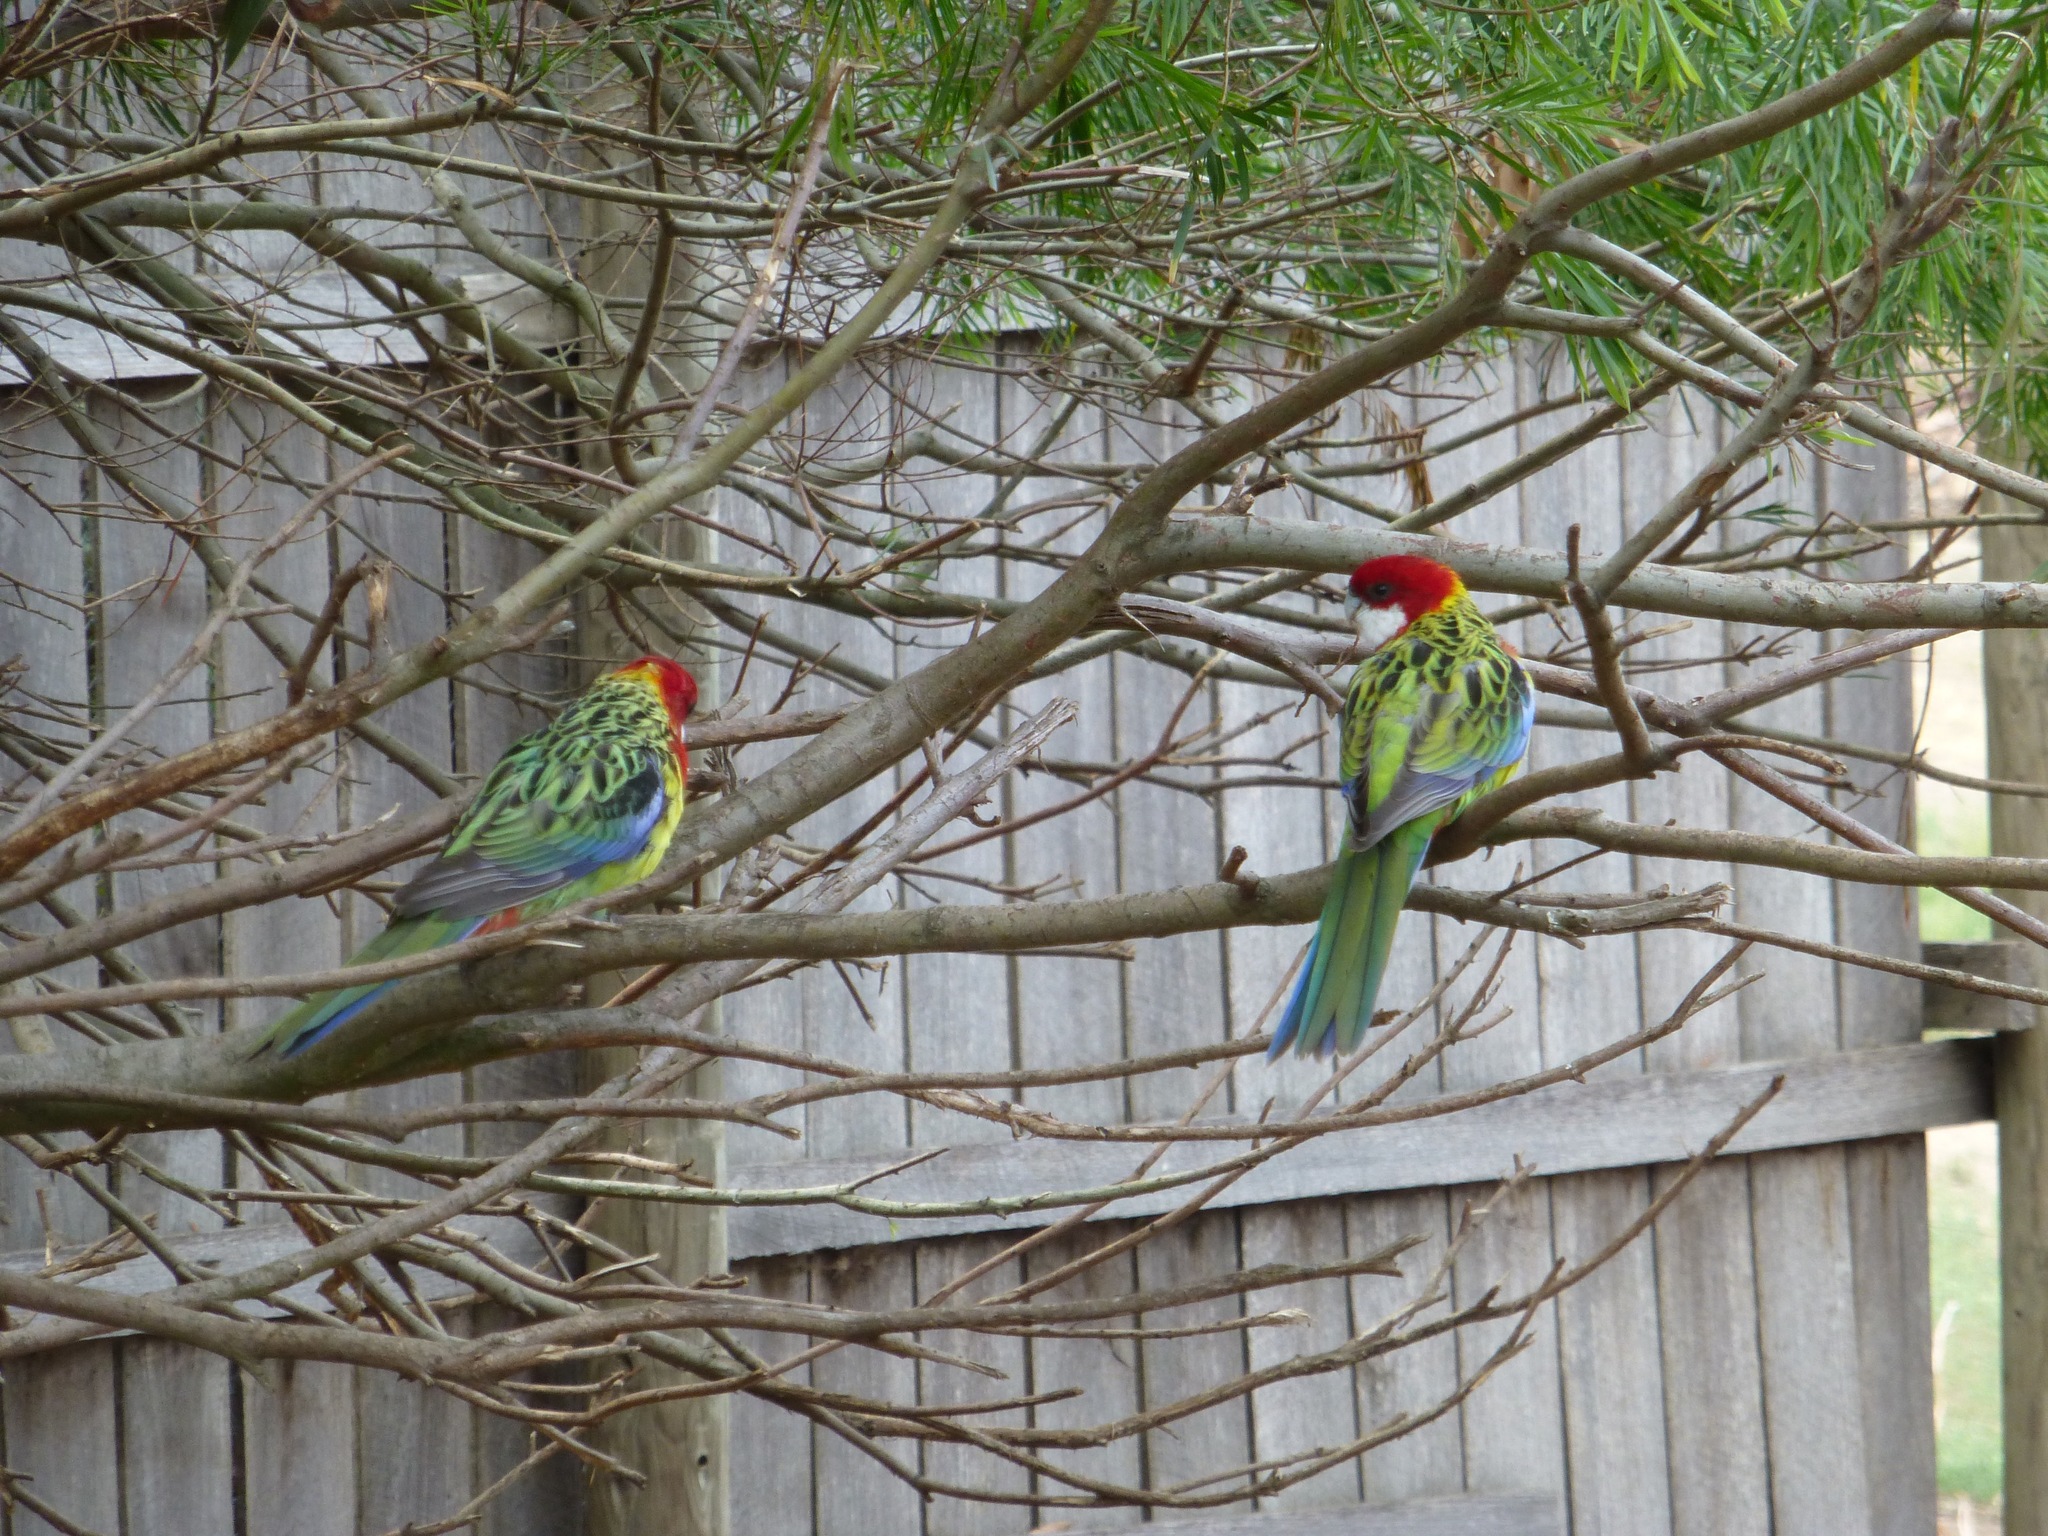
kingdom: Animalia
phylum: Chordata
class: Aves
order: Psittaciformes
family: Psittacidae
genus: Platycercus
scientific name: Platycercus eximius
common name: Eastern rosella
